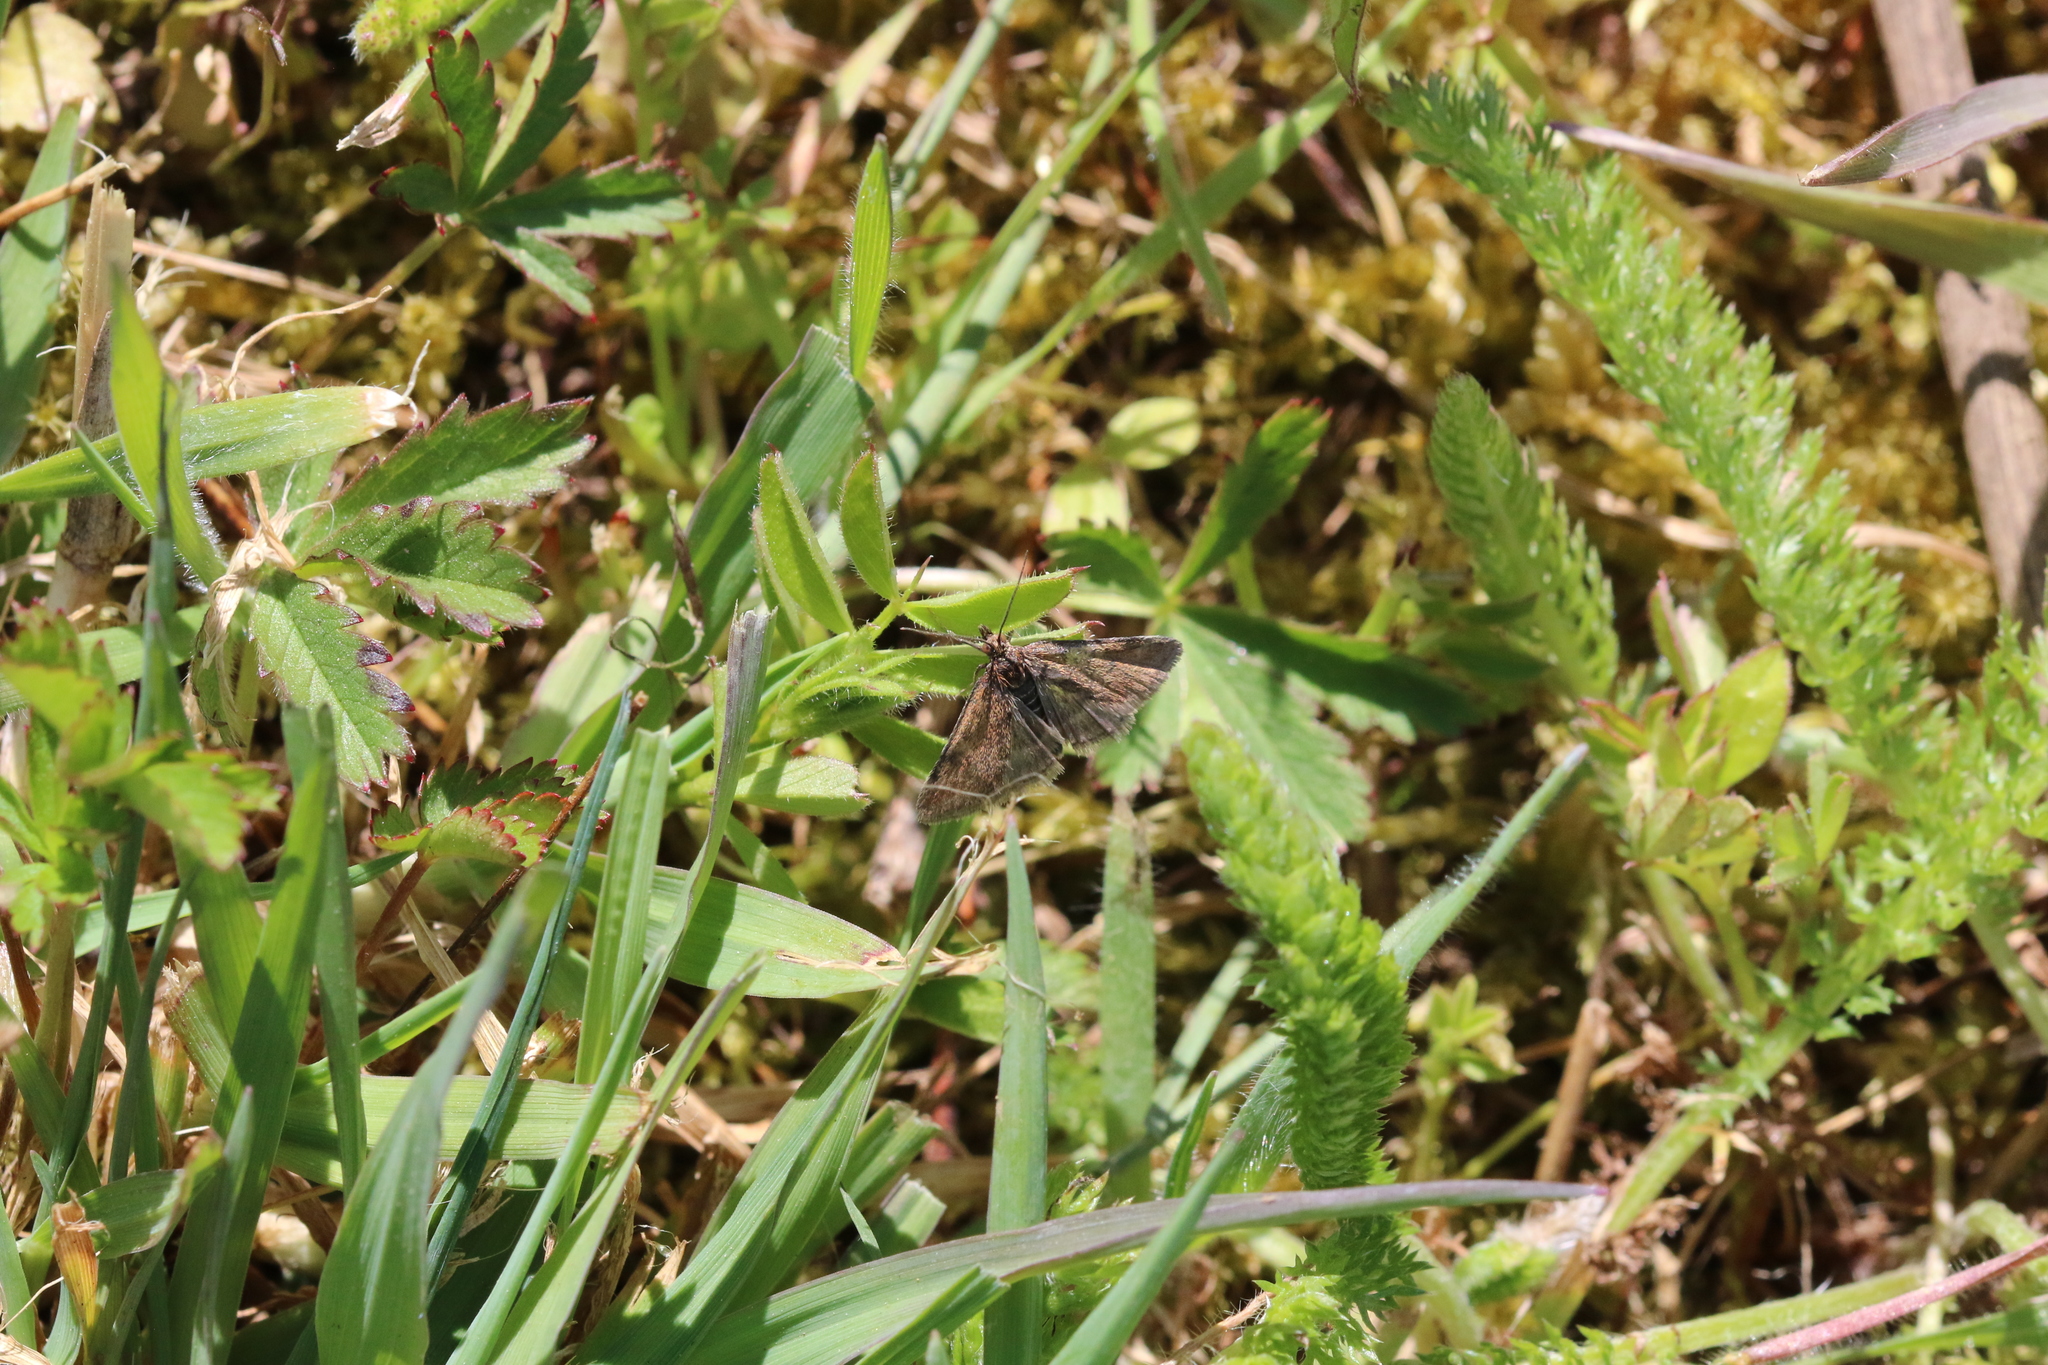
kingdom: Animalia
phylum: Arthropoda
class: Insecta
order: Lepidoptera
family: Crambidae
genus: Pyrausta
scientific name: Pyrausta despicata
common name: Straw-barred pearl
